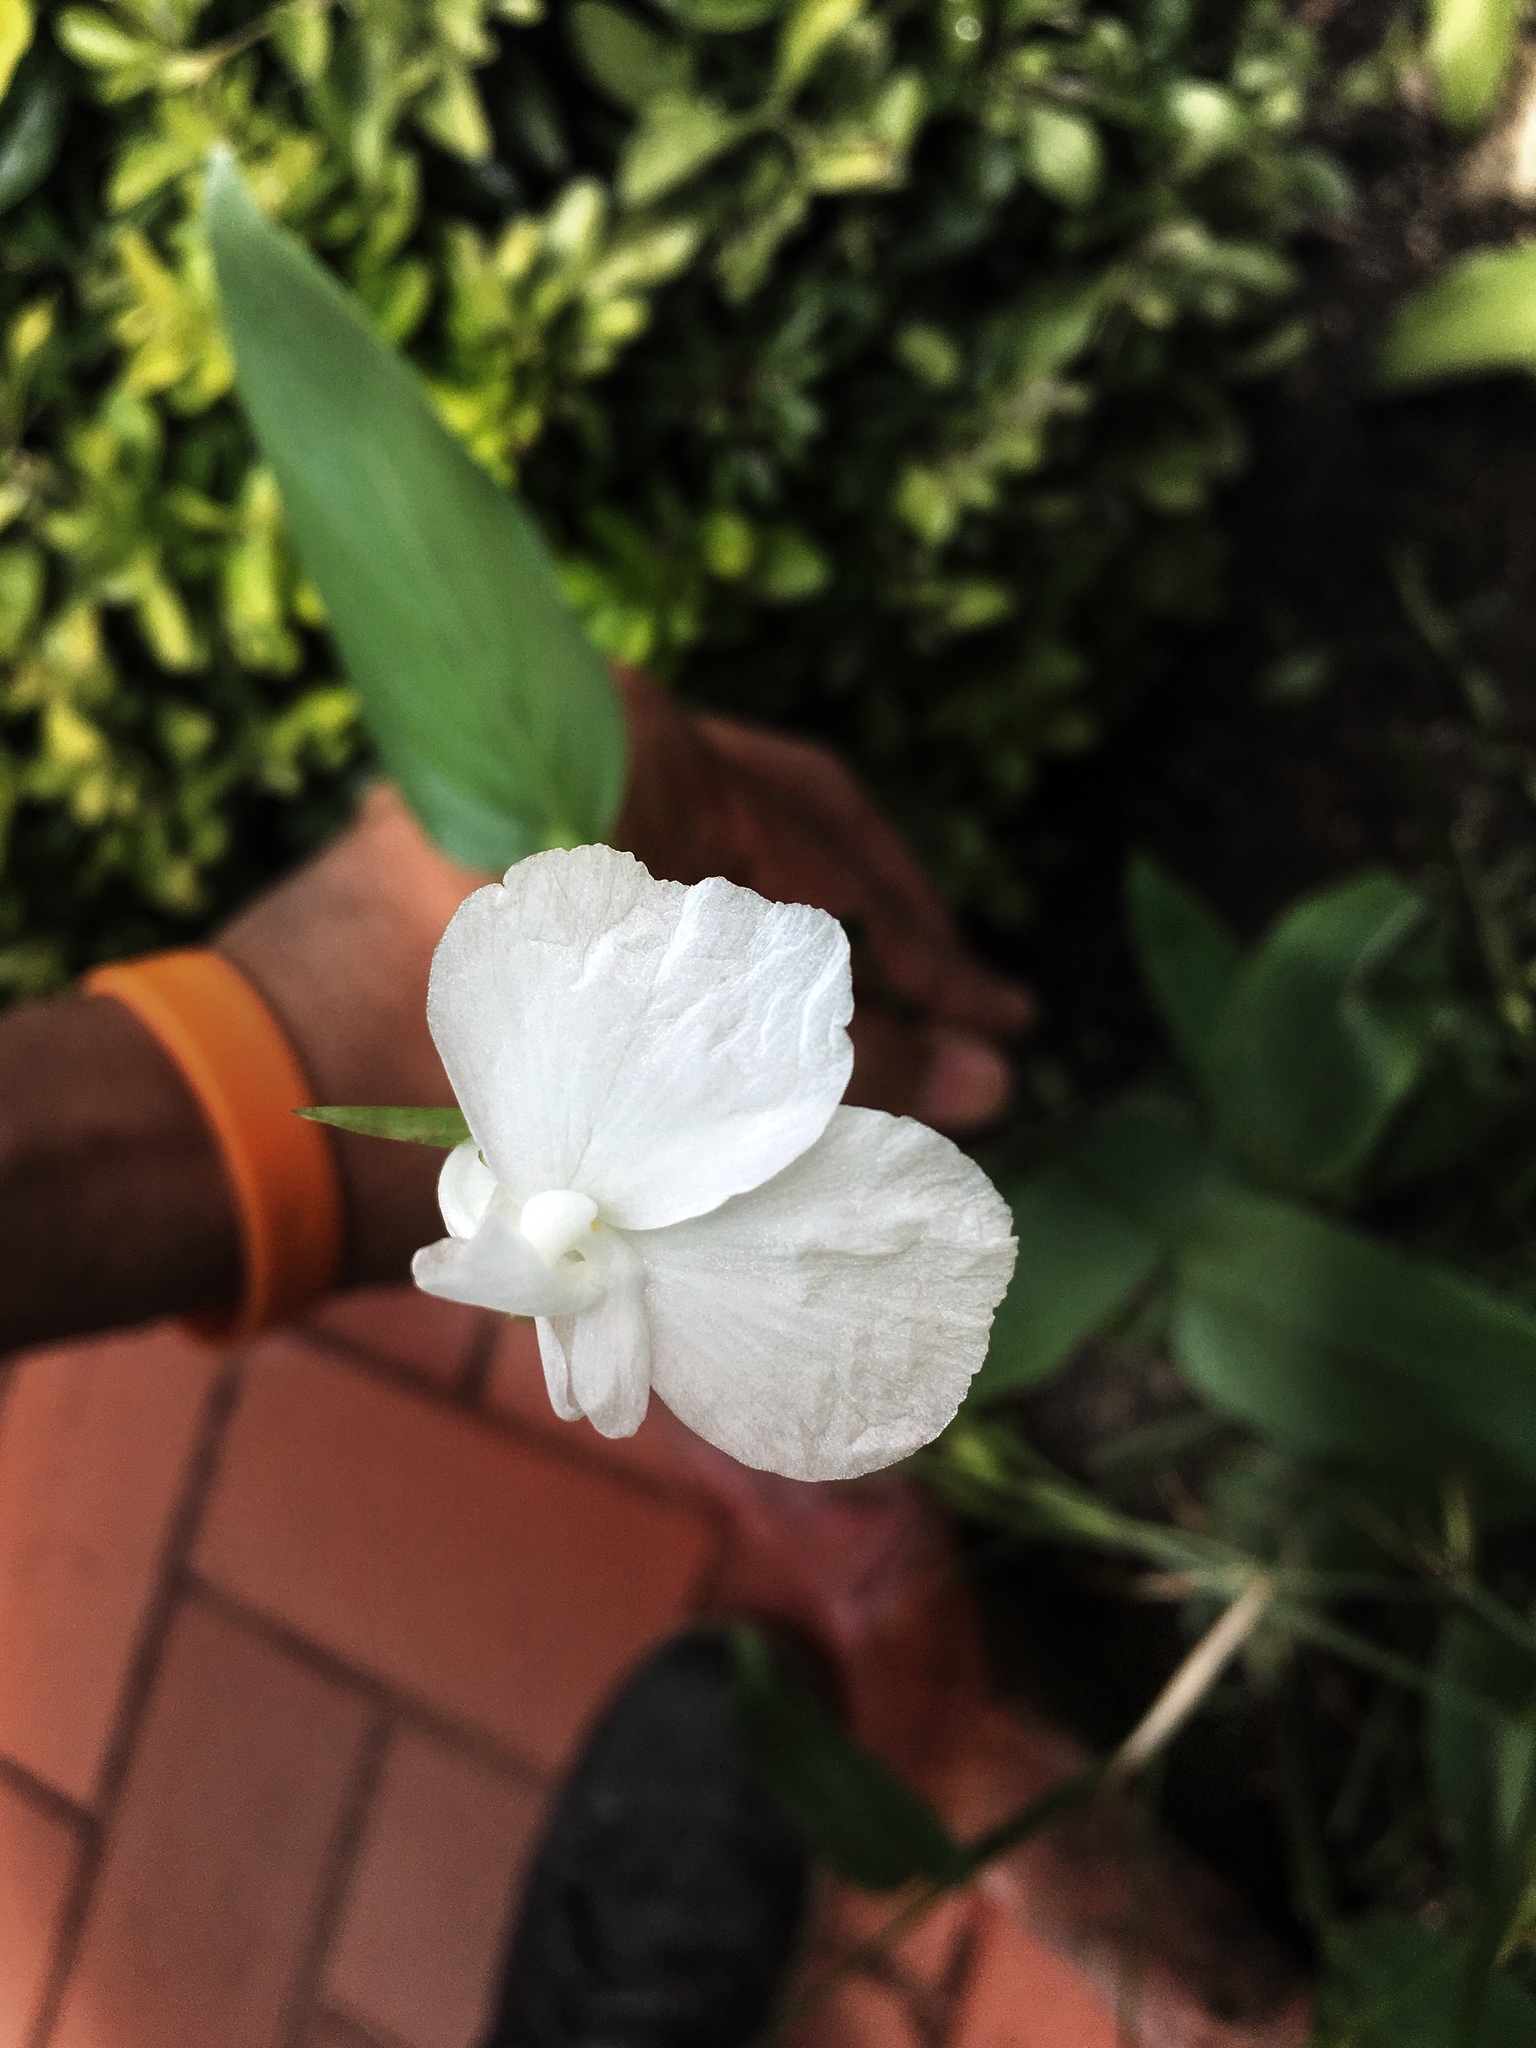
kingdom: Plantae
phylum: Tracheophyta
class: Liliopsida
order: Zingiberales
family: Marantaceae
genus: Maranta
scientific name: Maranta arundinacea
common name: Arrowroot
